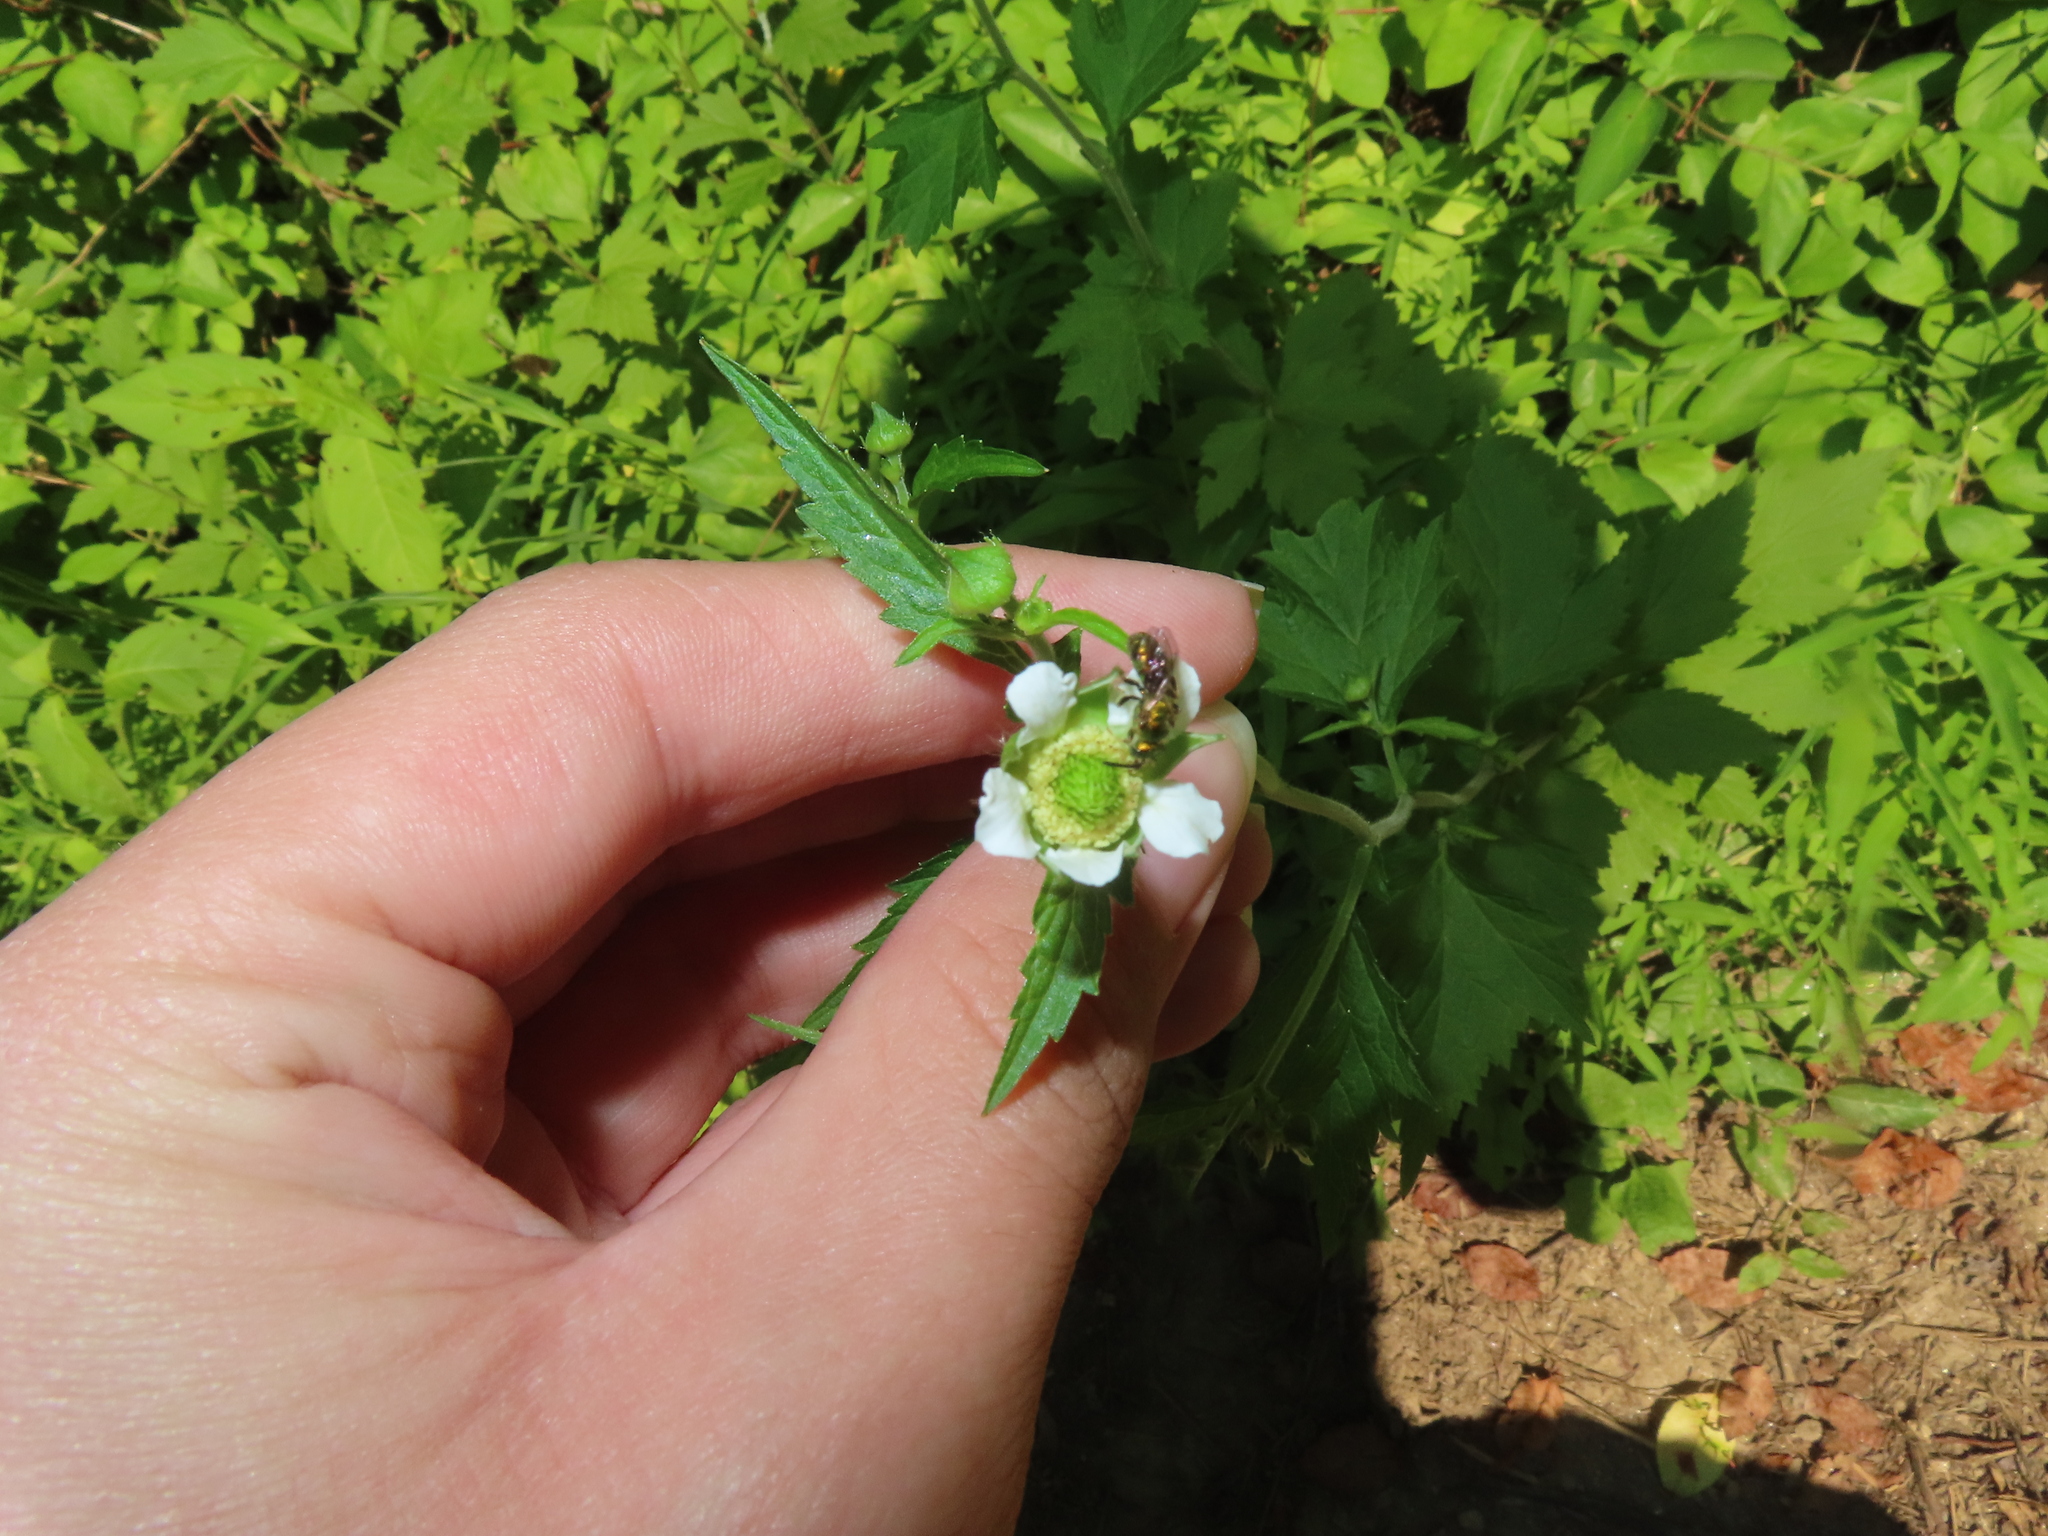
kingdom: Plantae
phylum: Tracheophyta
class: Magnoliopsida
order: Rosales
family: Rosaceae
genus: Geum
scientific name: Geum canadense
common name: White avens
